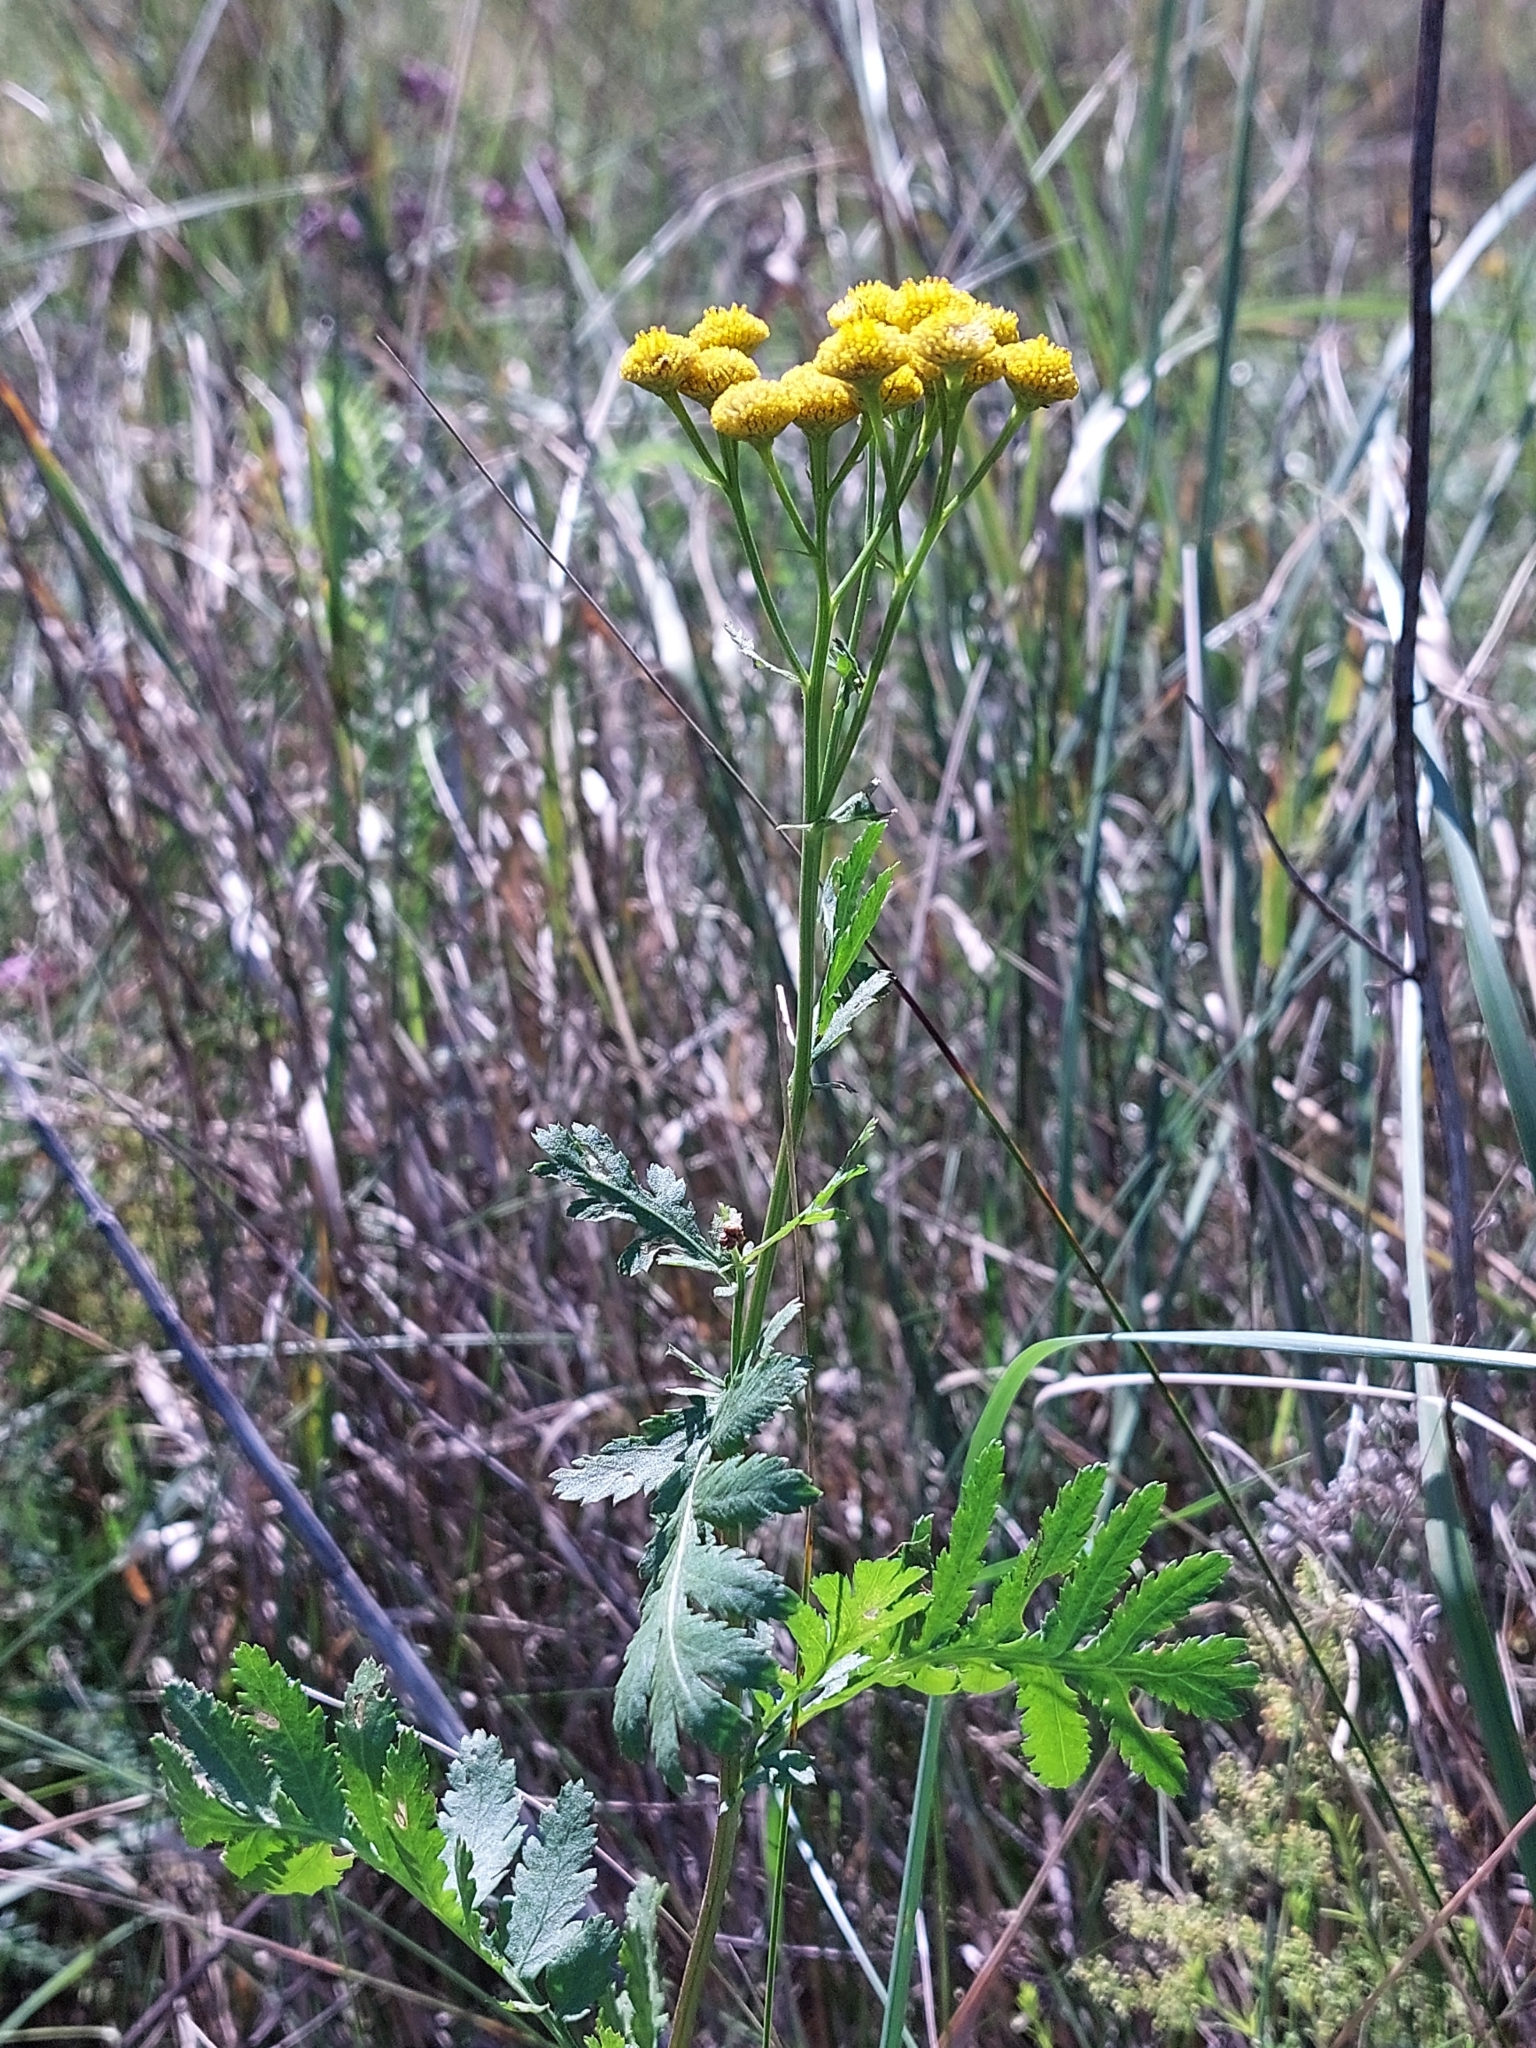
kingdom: Plantae
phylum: Tracheophyta
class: Magnoliopsida
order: Asterales
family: Asteraceae
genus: Tanacetum
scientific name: Tanacetum vulgare
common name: Common tansy
